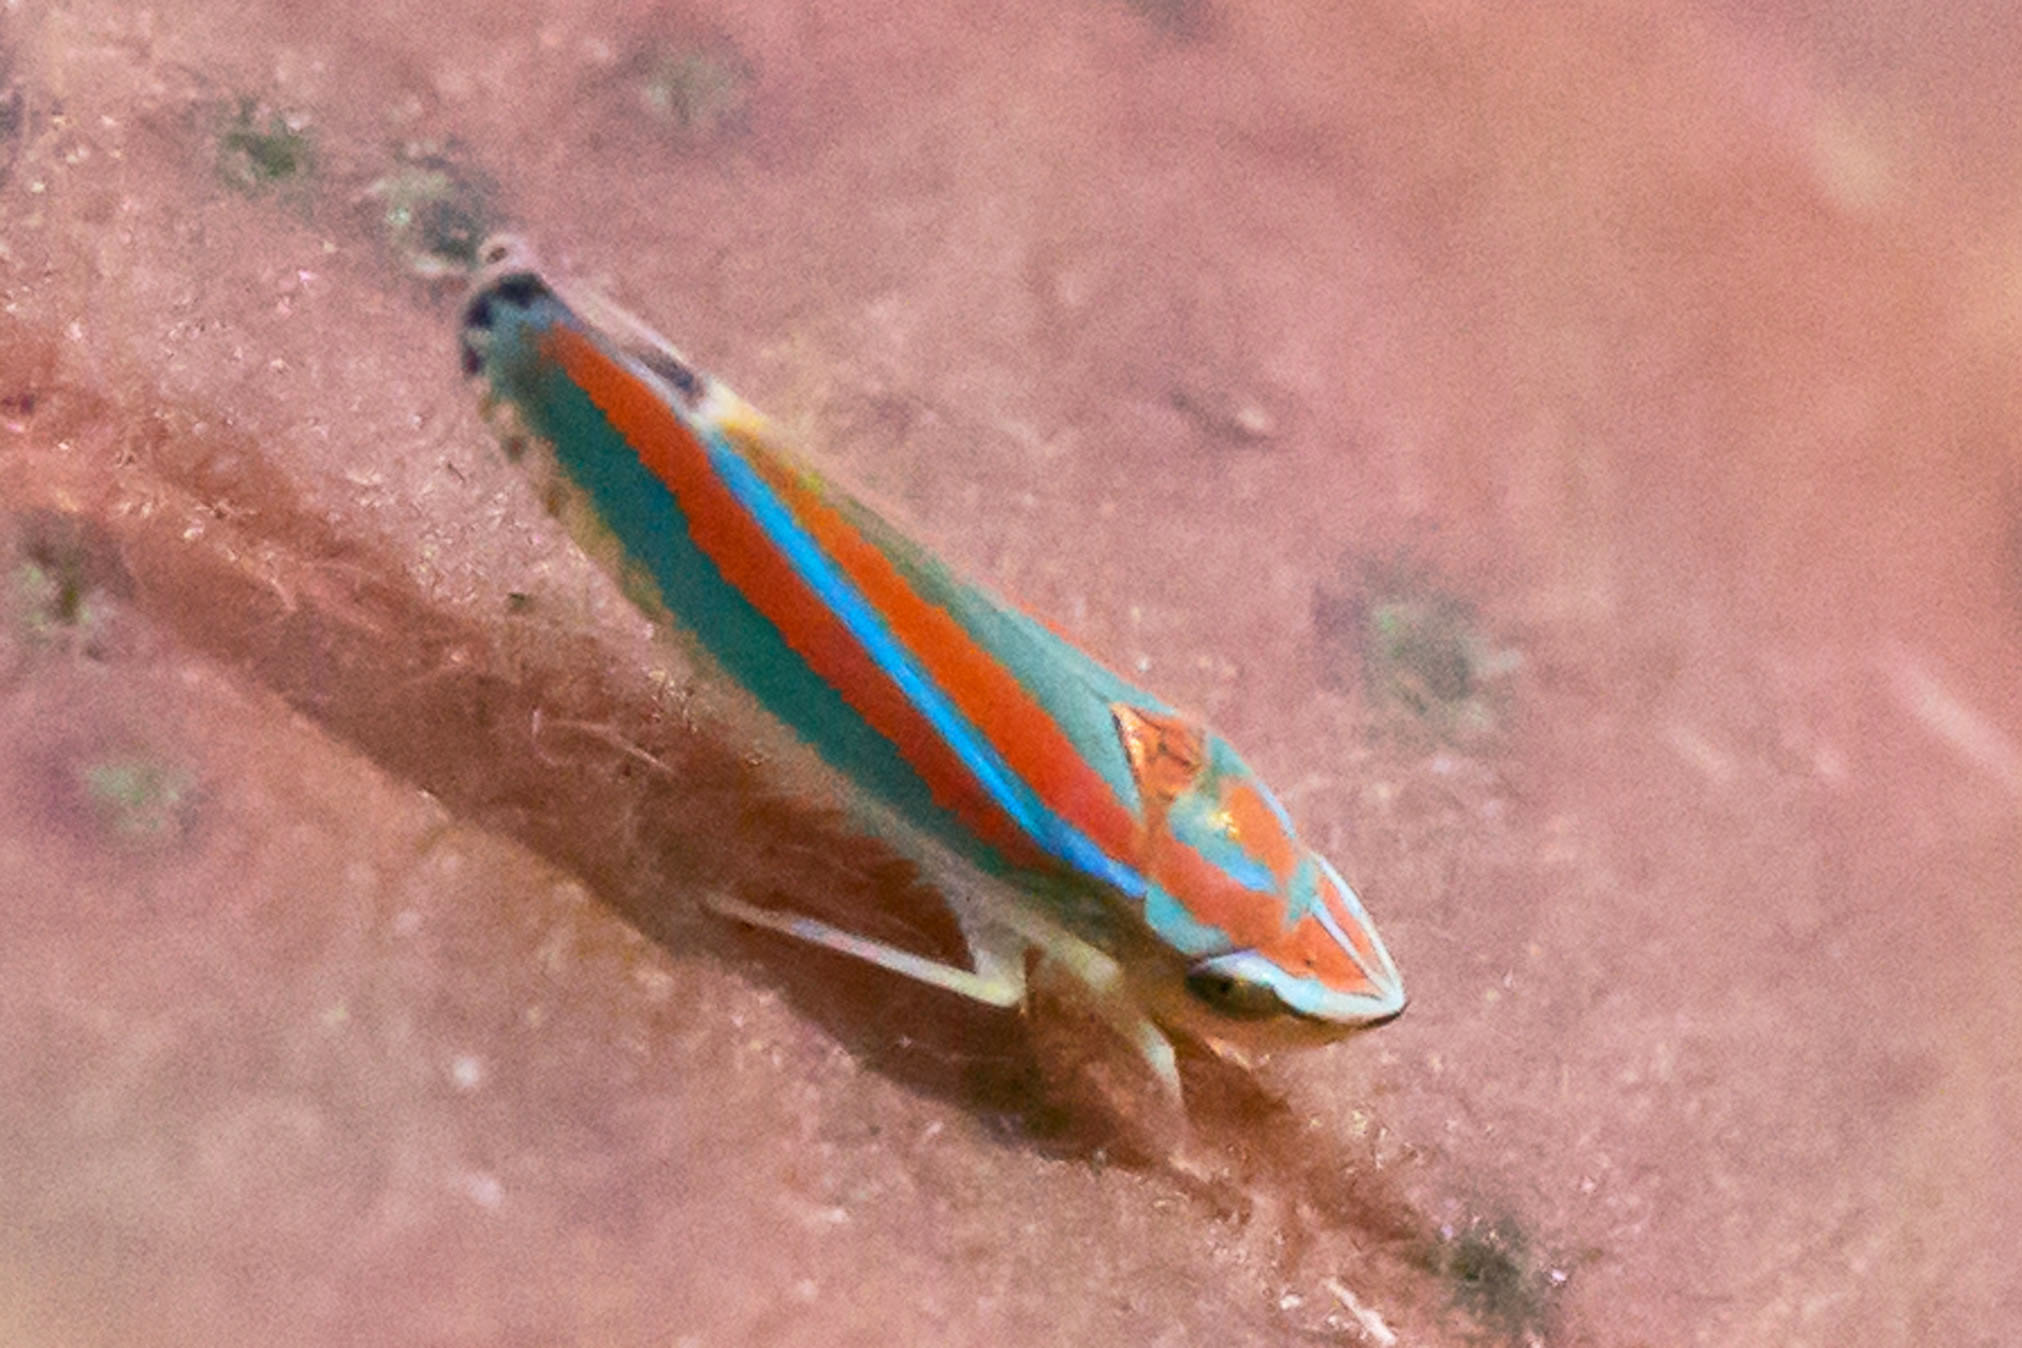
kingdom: Animalia
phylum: Arthropoda
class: Insecta
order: Hemiptera
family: Cicadellidae
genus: Graphocephala
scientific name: Graphocephala versuta
